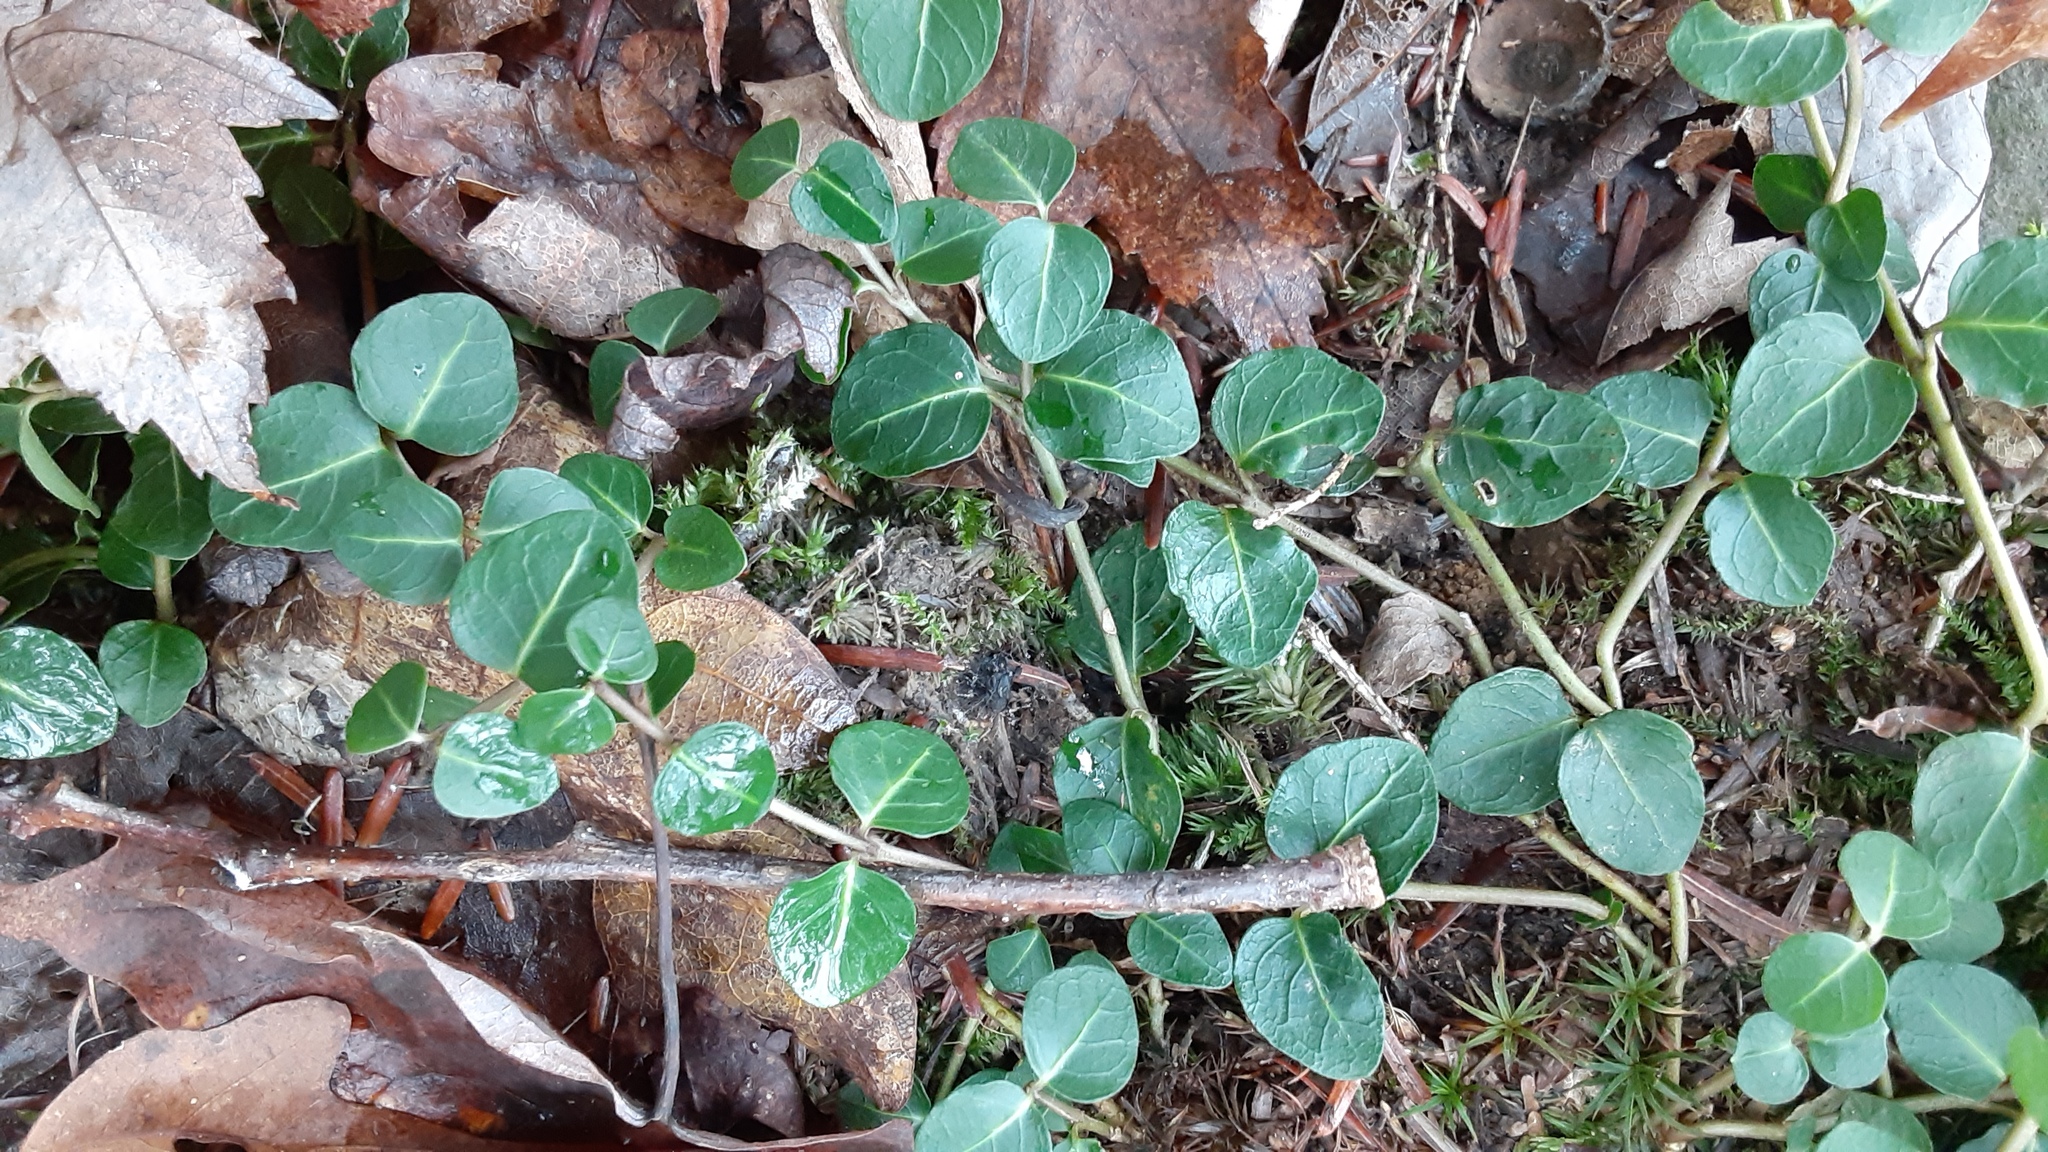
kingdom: Plantae
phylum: Tracheophyta
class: Magnoliopsida
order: Gentianales
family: Rubiaceae
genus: Mitchella
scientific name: Mitchella repens
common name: Partridge-berry
